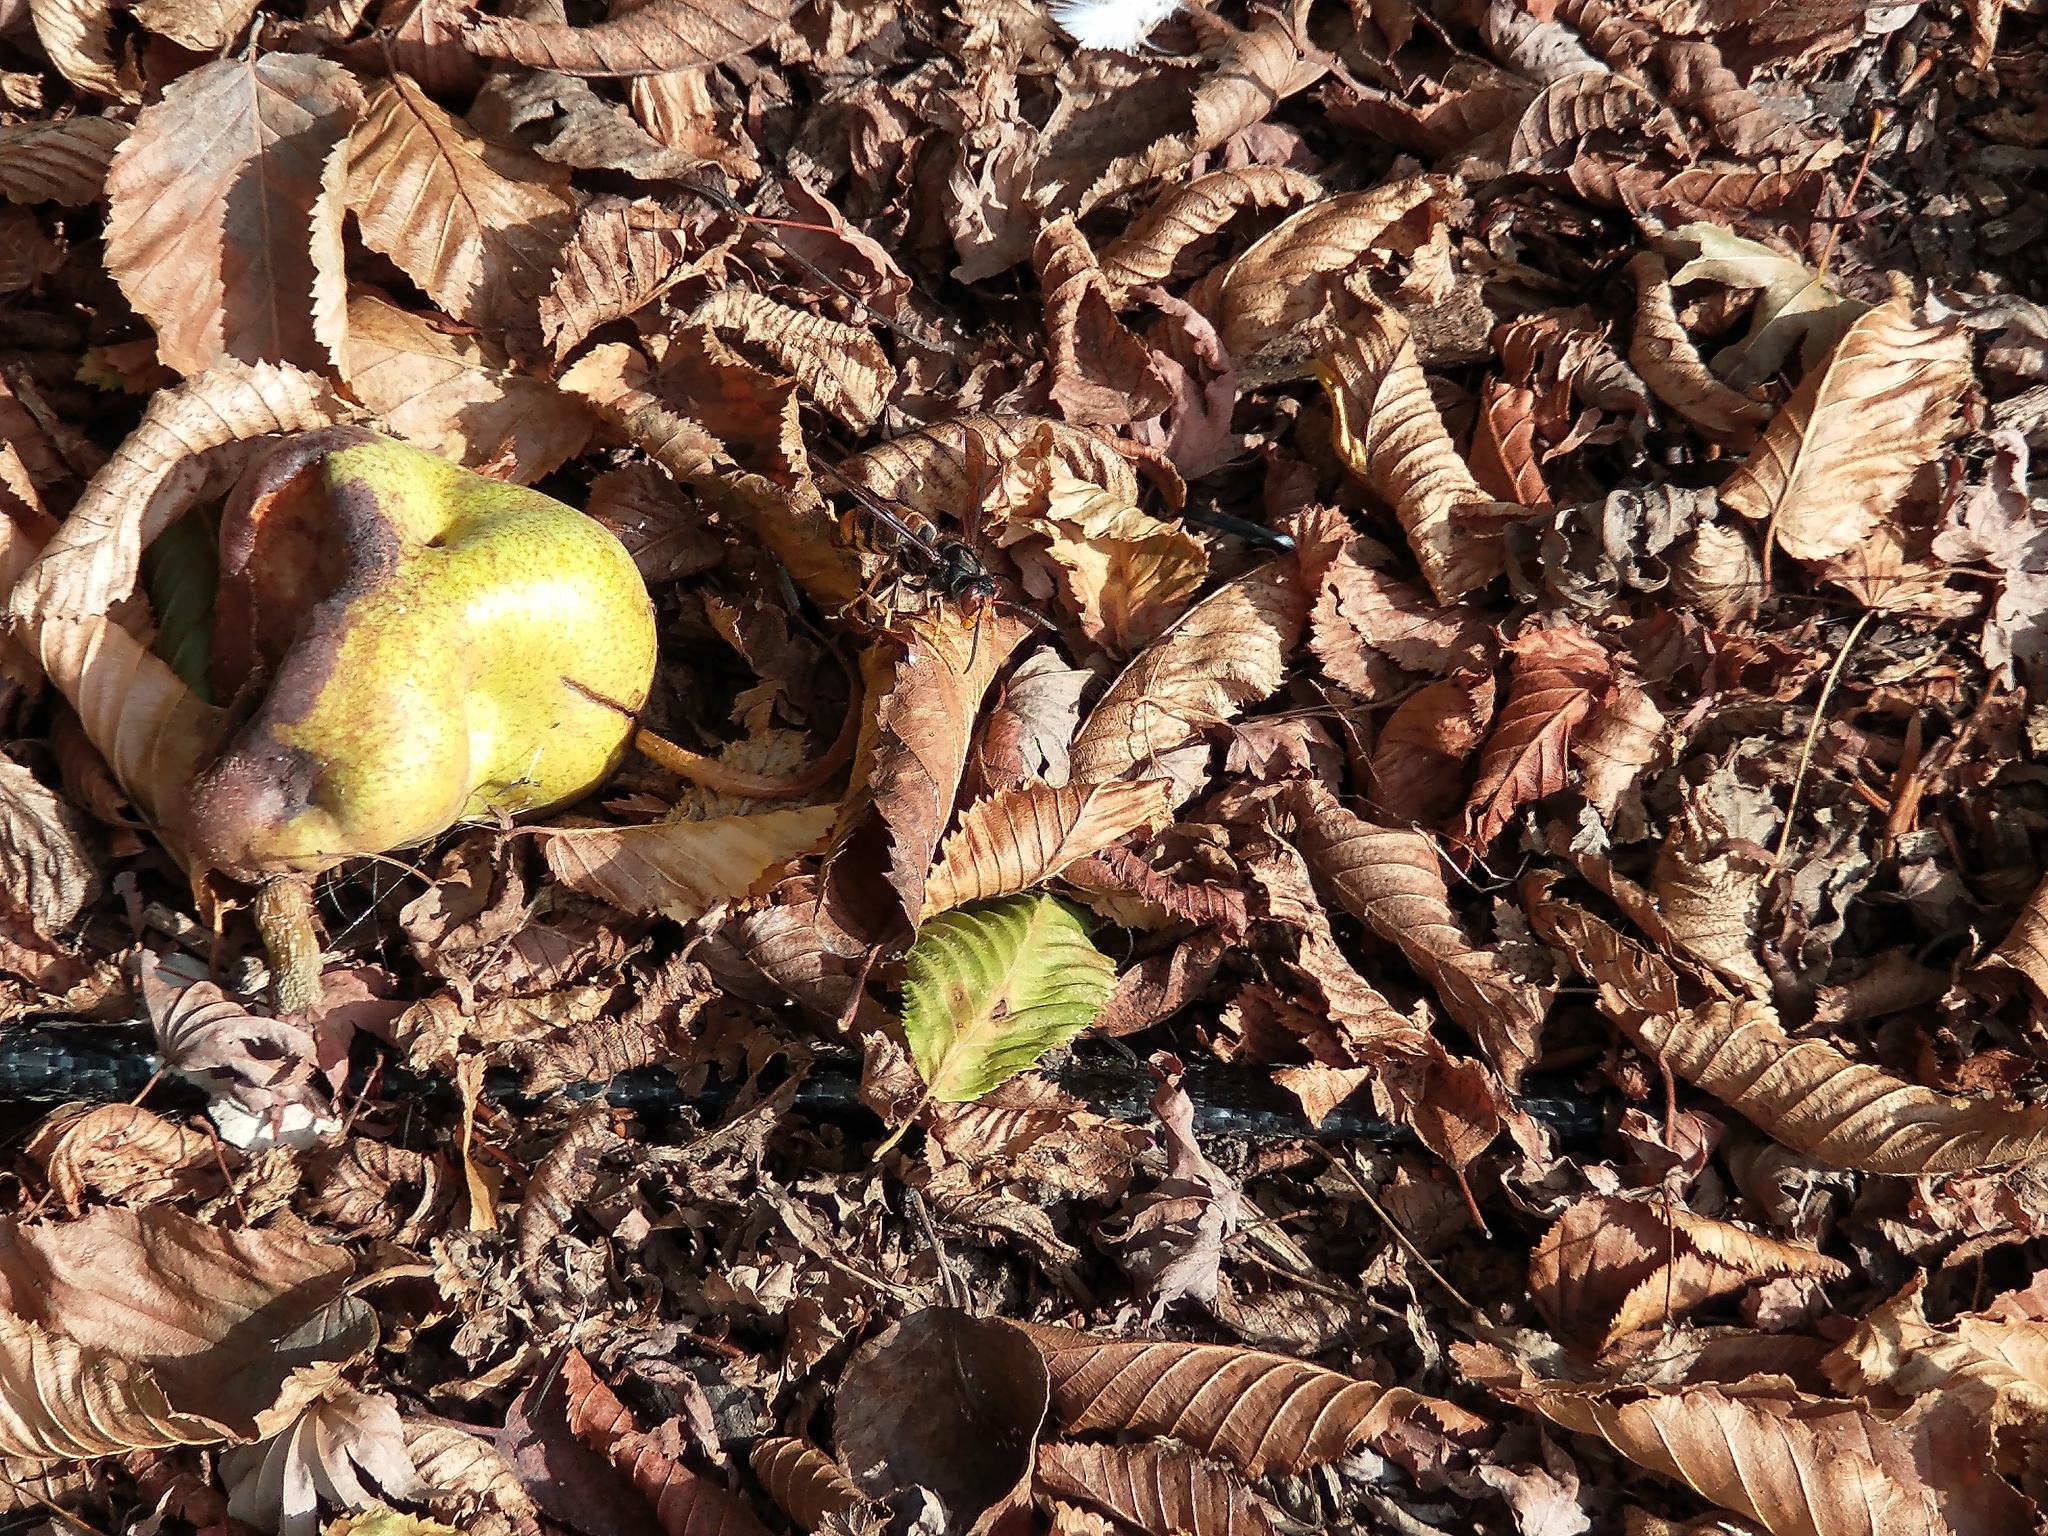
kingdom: Animalia
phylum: Arthropoda
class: Insecta
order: Hymenoptera
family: Vespidae
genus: Vespa
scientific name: Vespa velutina
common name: Asian hornet
